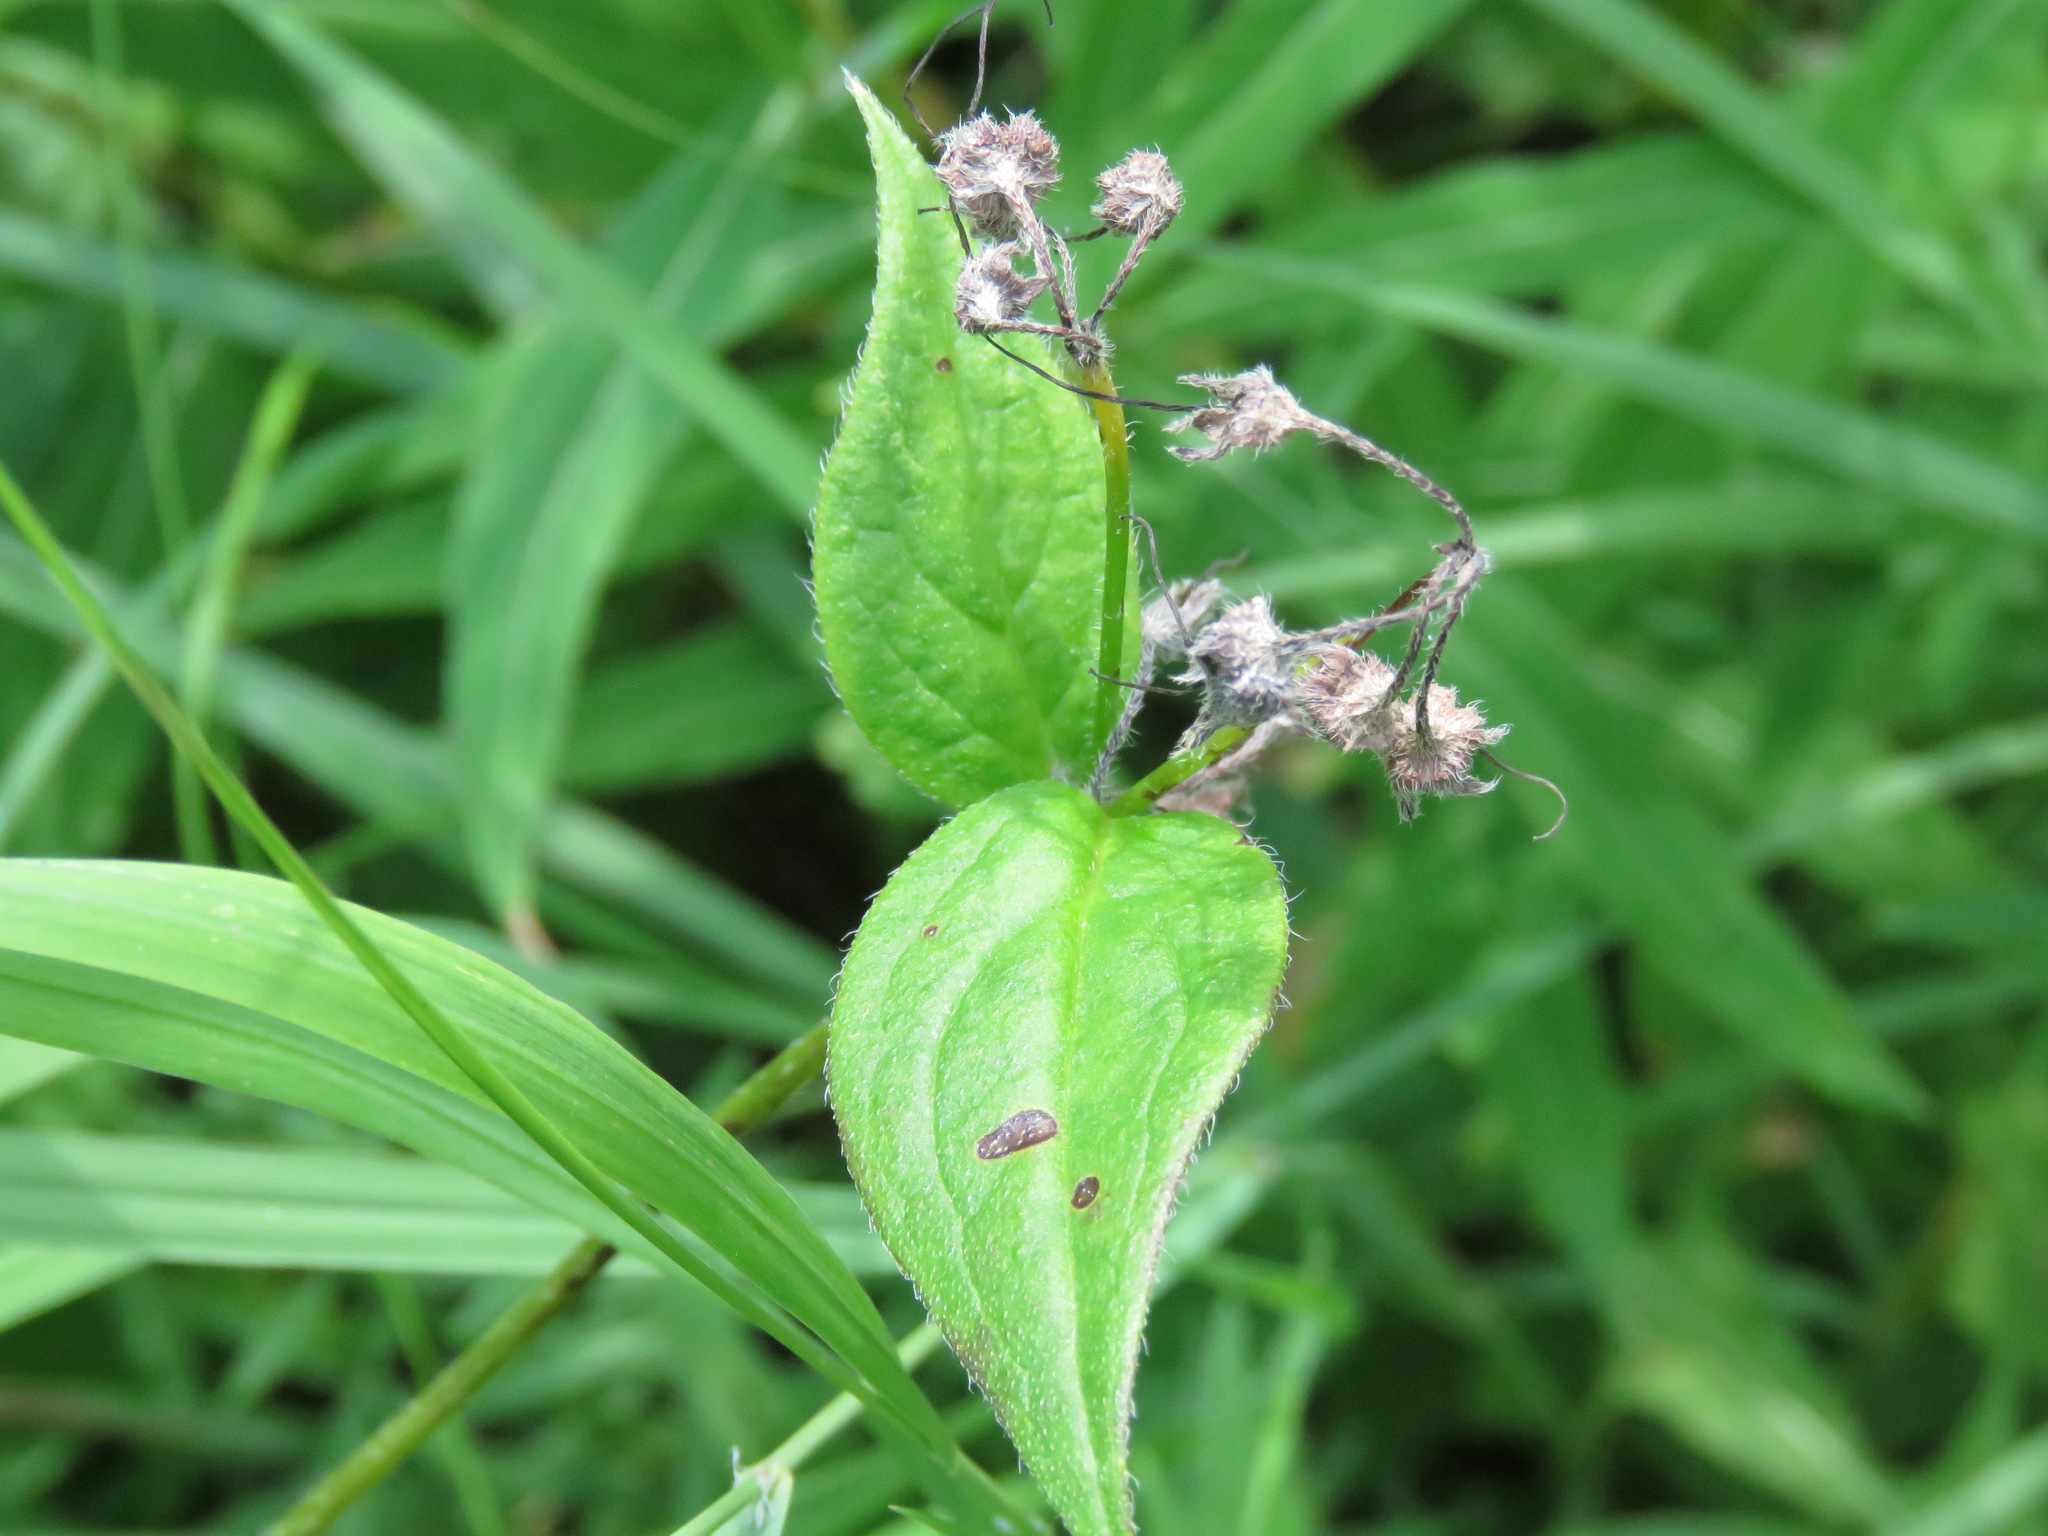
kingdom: Plantae
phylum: Tracheophyta
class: Magnoliopsida
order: Boraginales
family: Boraginaceae
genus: Mertensia
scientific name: Mertensia paniculata
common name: Panicled bluebells
